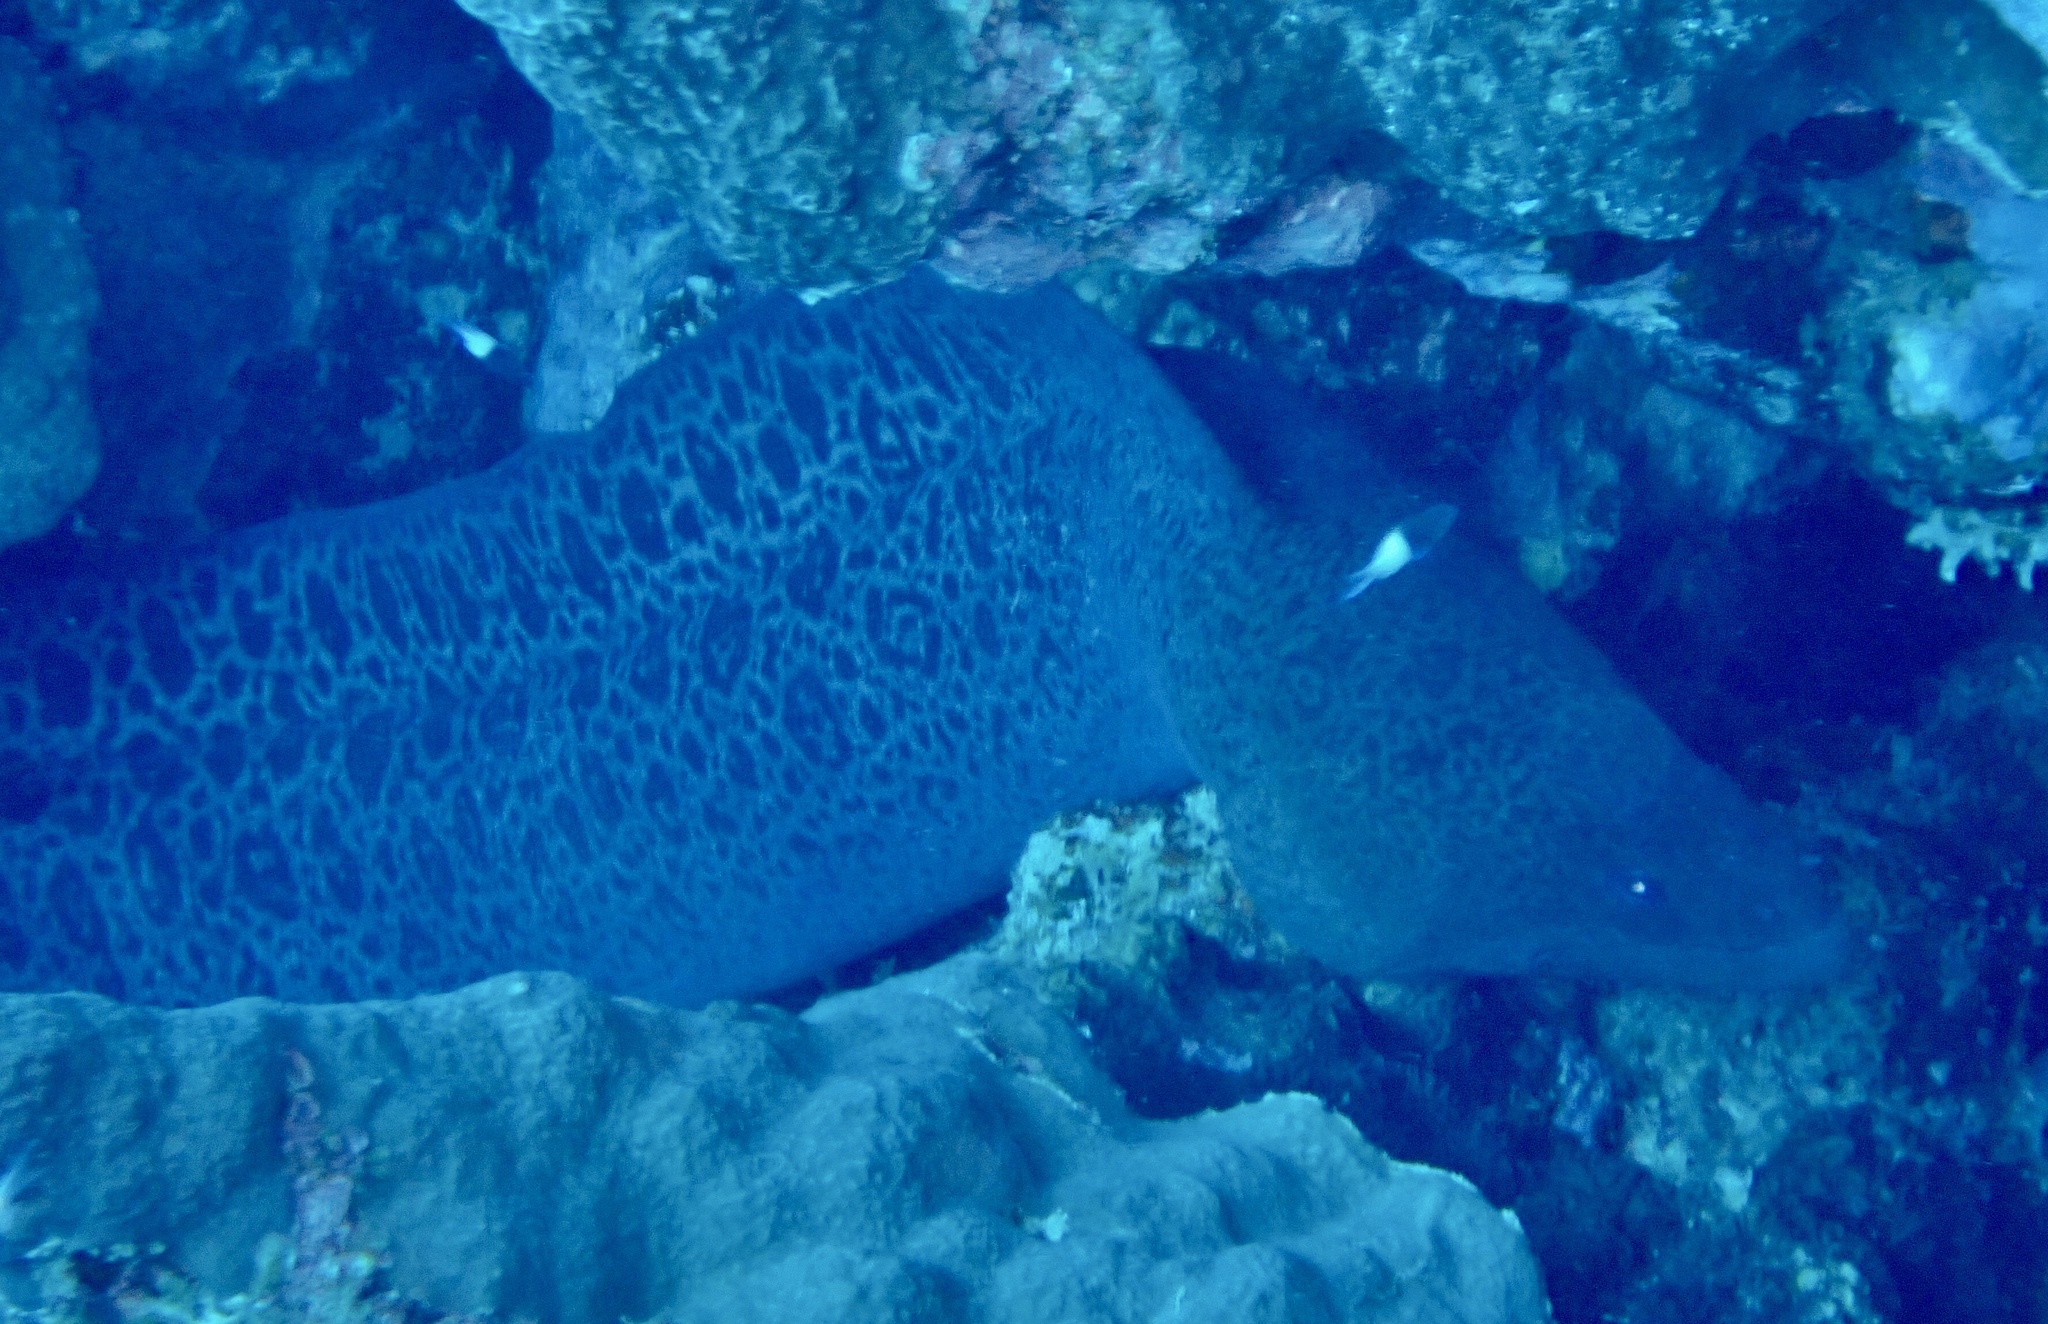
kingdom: Animalia
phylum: Chordata
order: Anguilliformes
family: Muraenidae
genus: Gymnothorax
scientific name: Gymnothorax javanicus
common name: Giant moray
